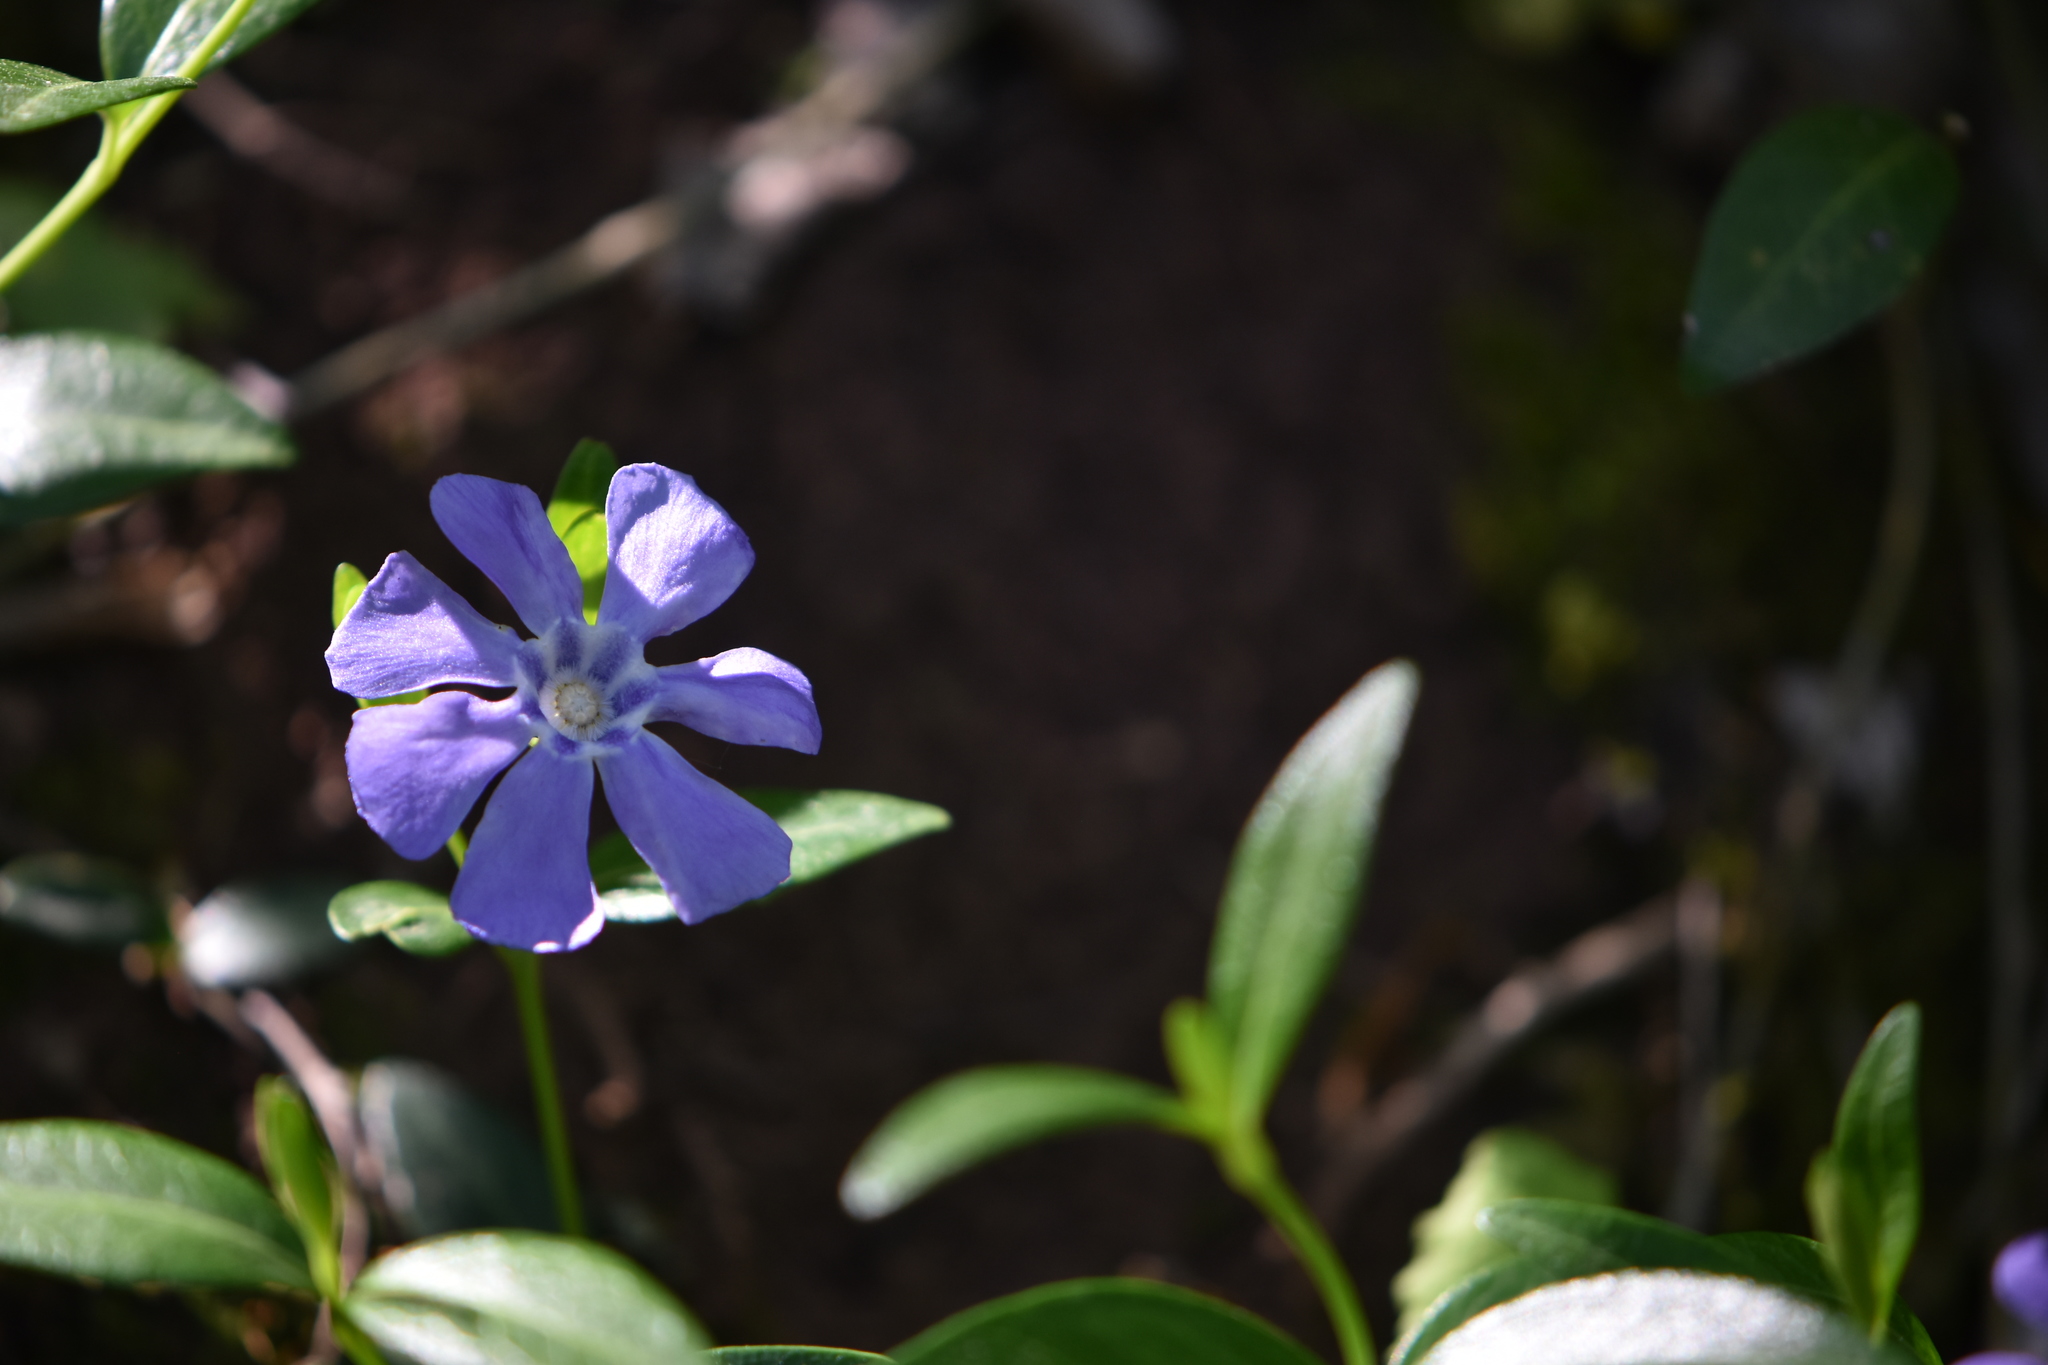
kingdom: Plantae
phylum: Tracheophyta
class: Magnoliopsida
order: Gentianales
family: Apocynaceae
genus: Vinca
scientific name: Vinca minor
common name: Lesser periwinkle
